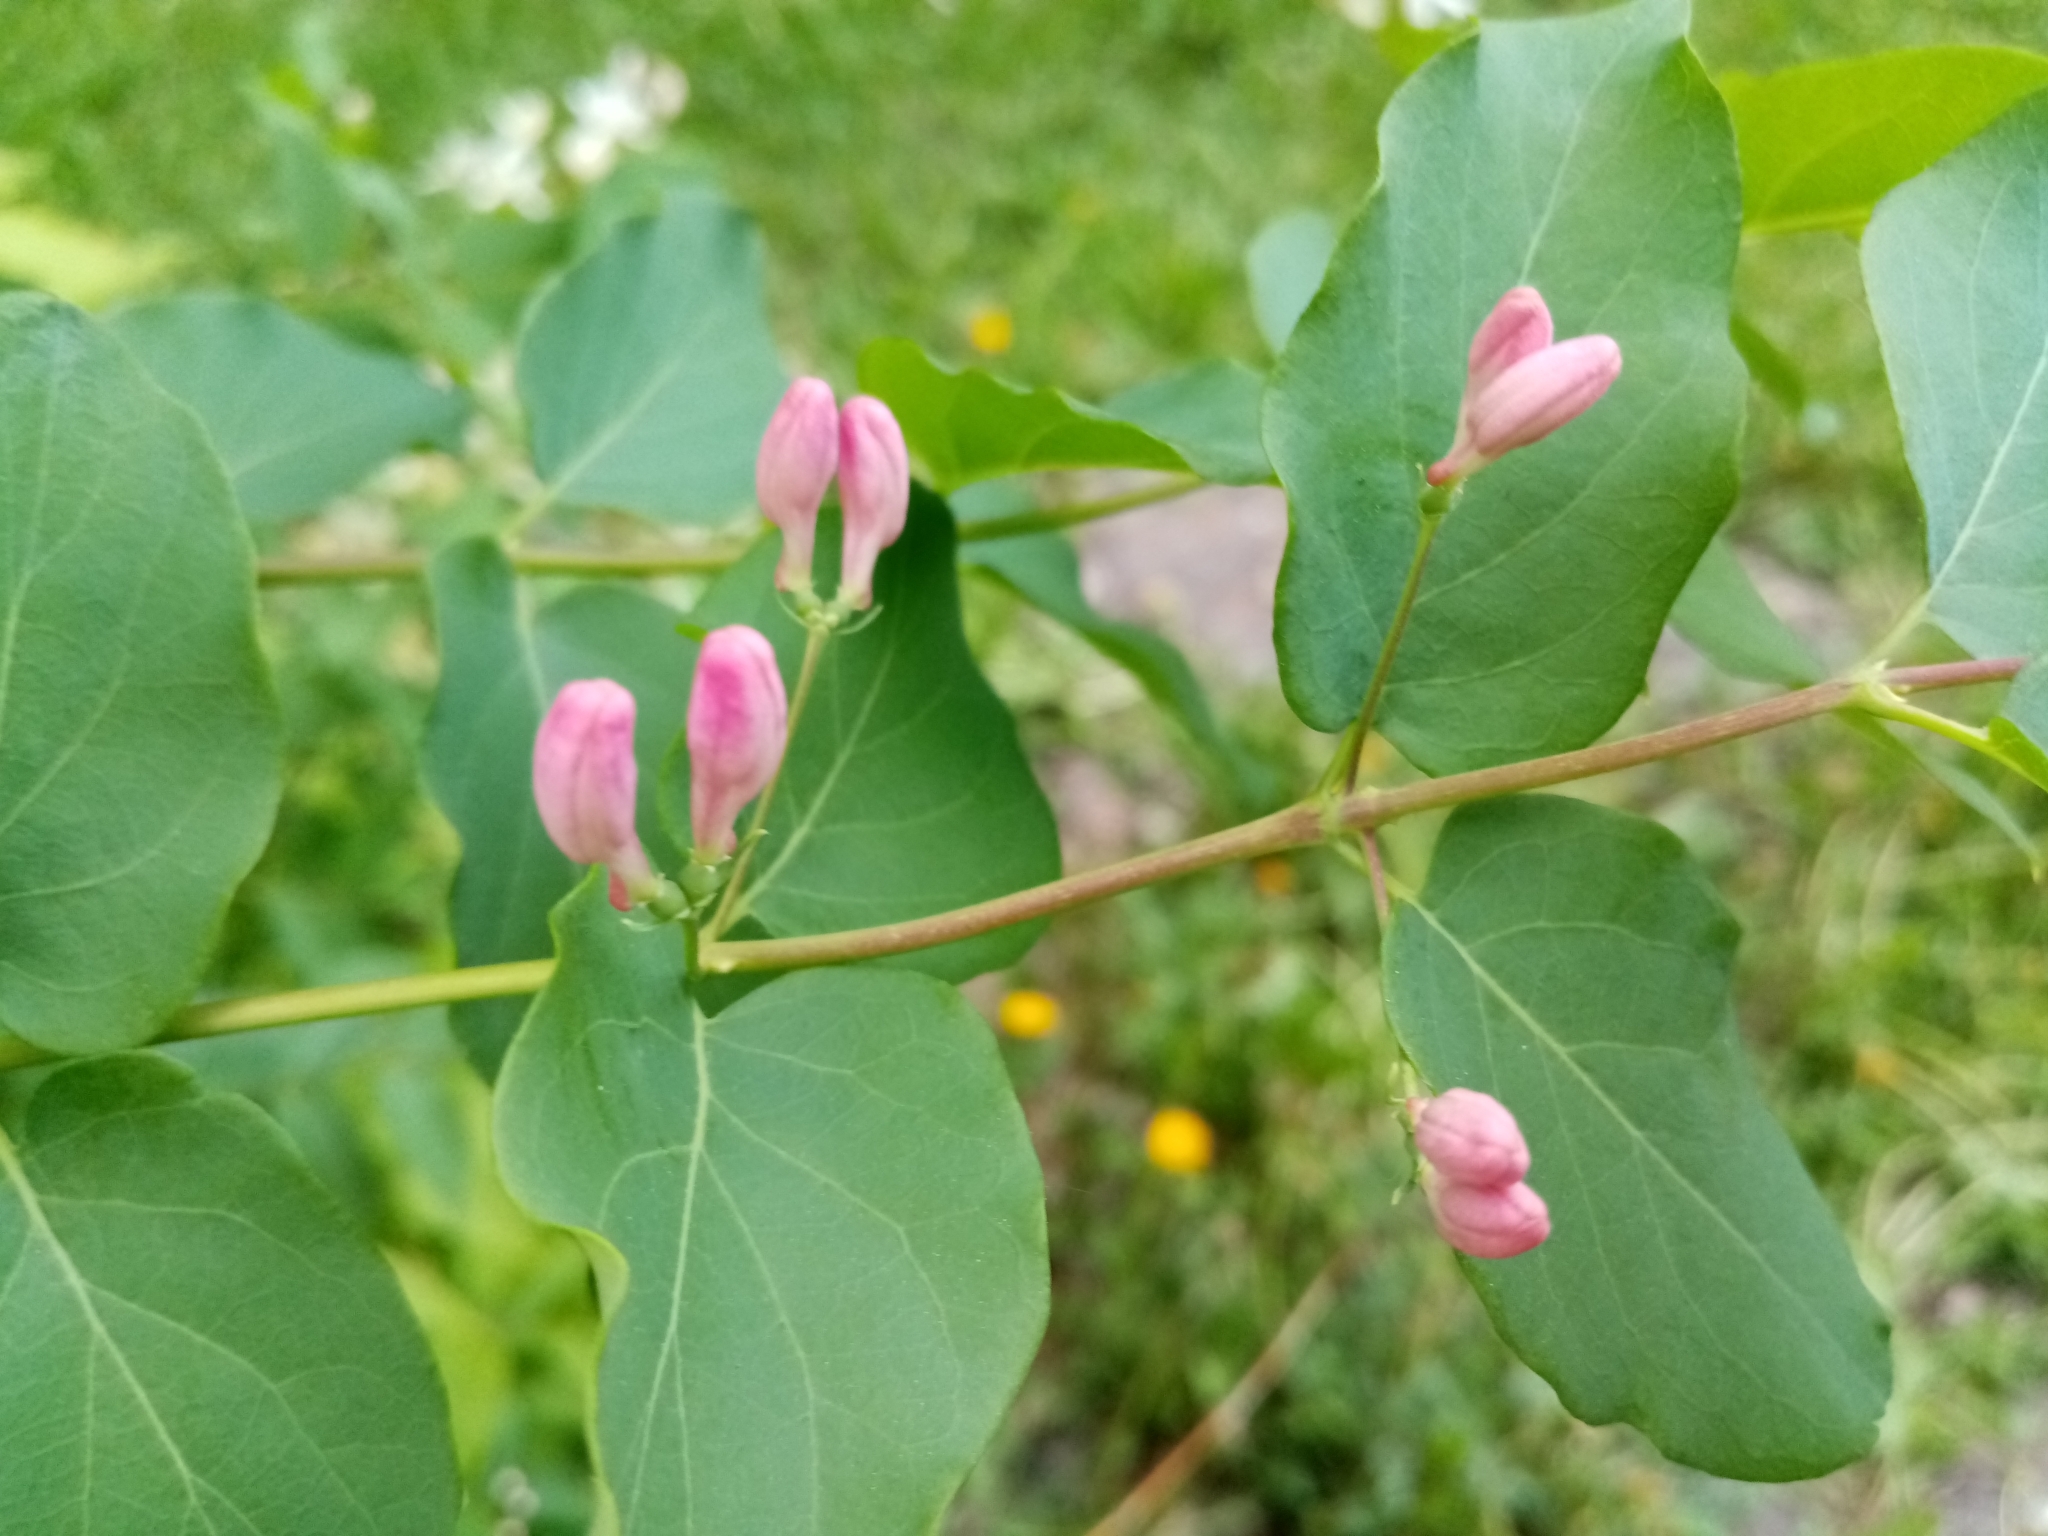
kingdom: Plantae
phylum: Tracheophyta
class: Magnoliopsida
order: Dipsacales
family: Caprifoliaceae
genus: Lonicera
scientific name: Lonicera tatarica
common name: Tatarian honeysuckle
